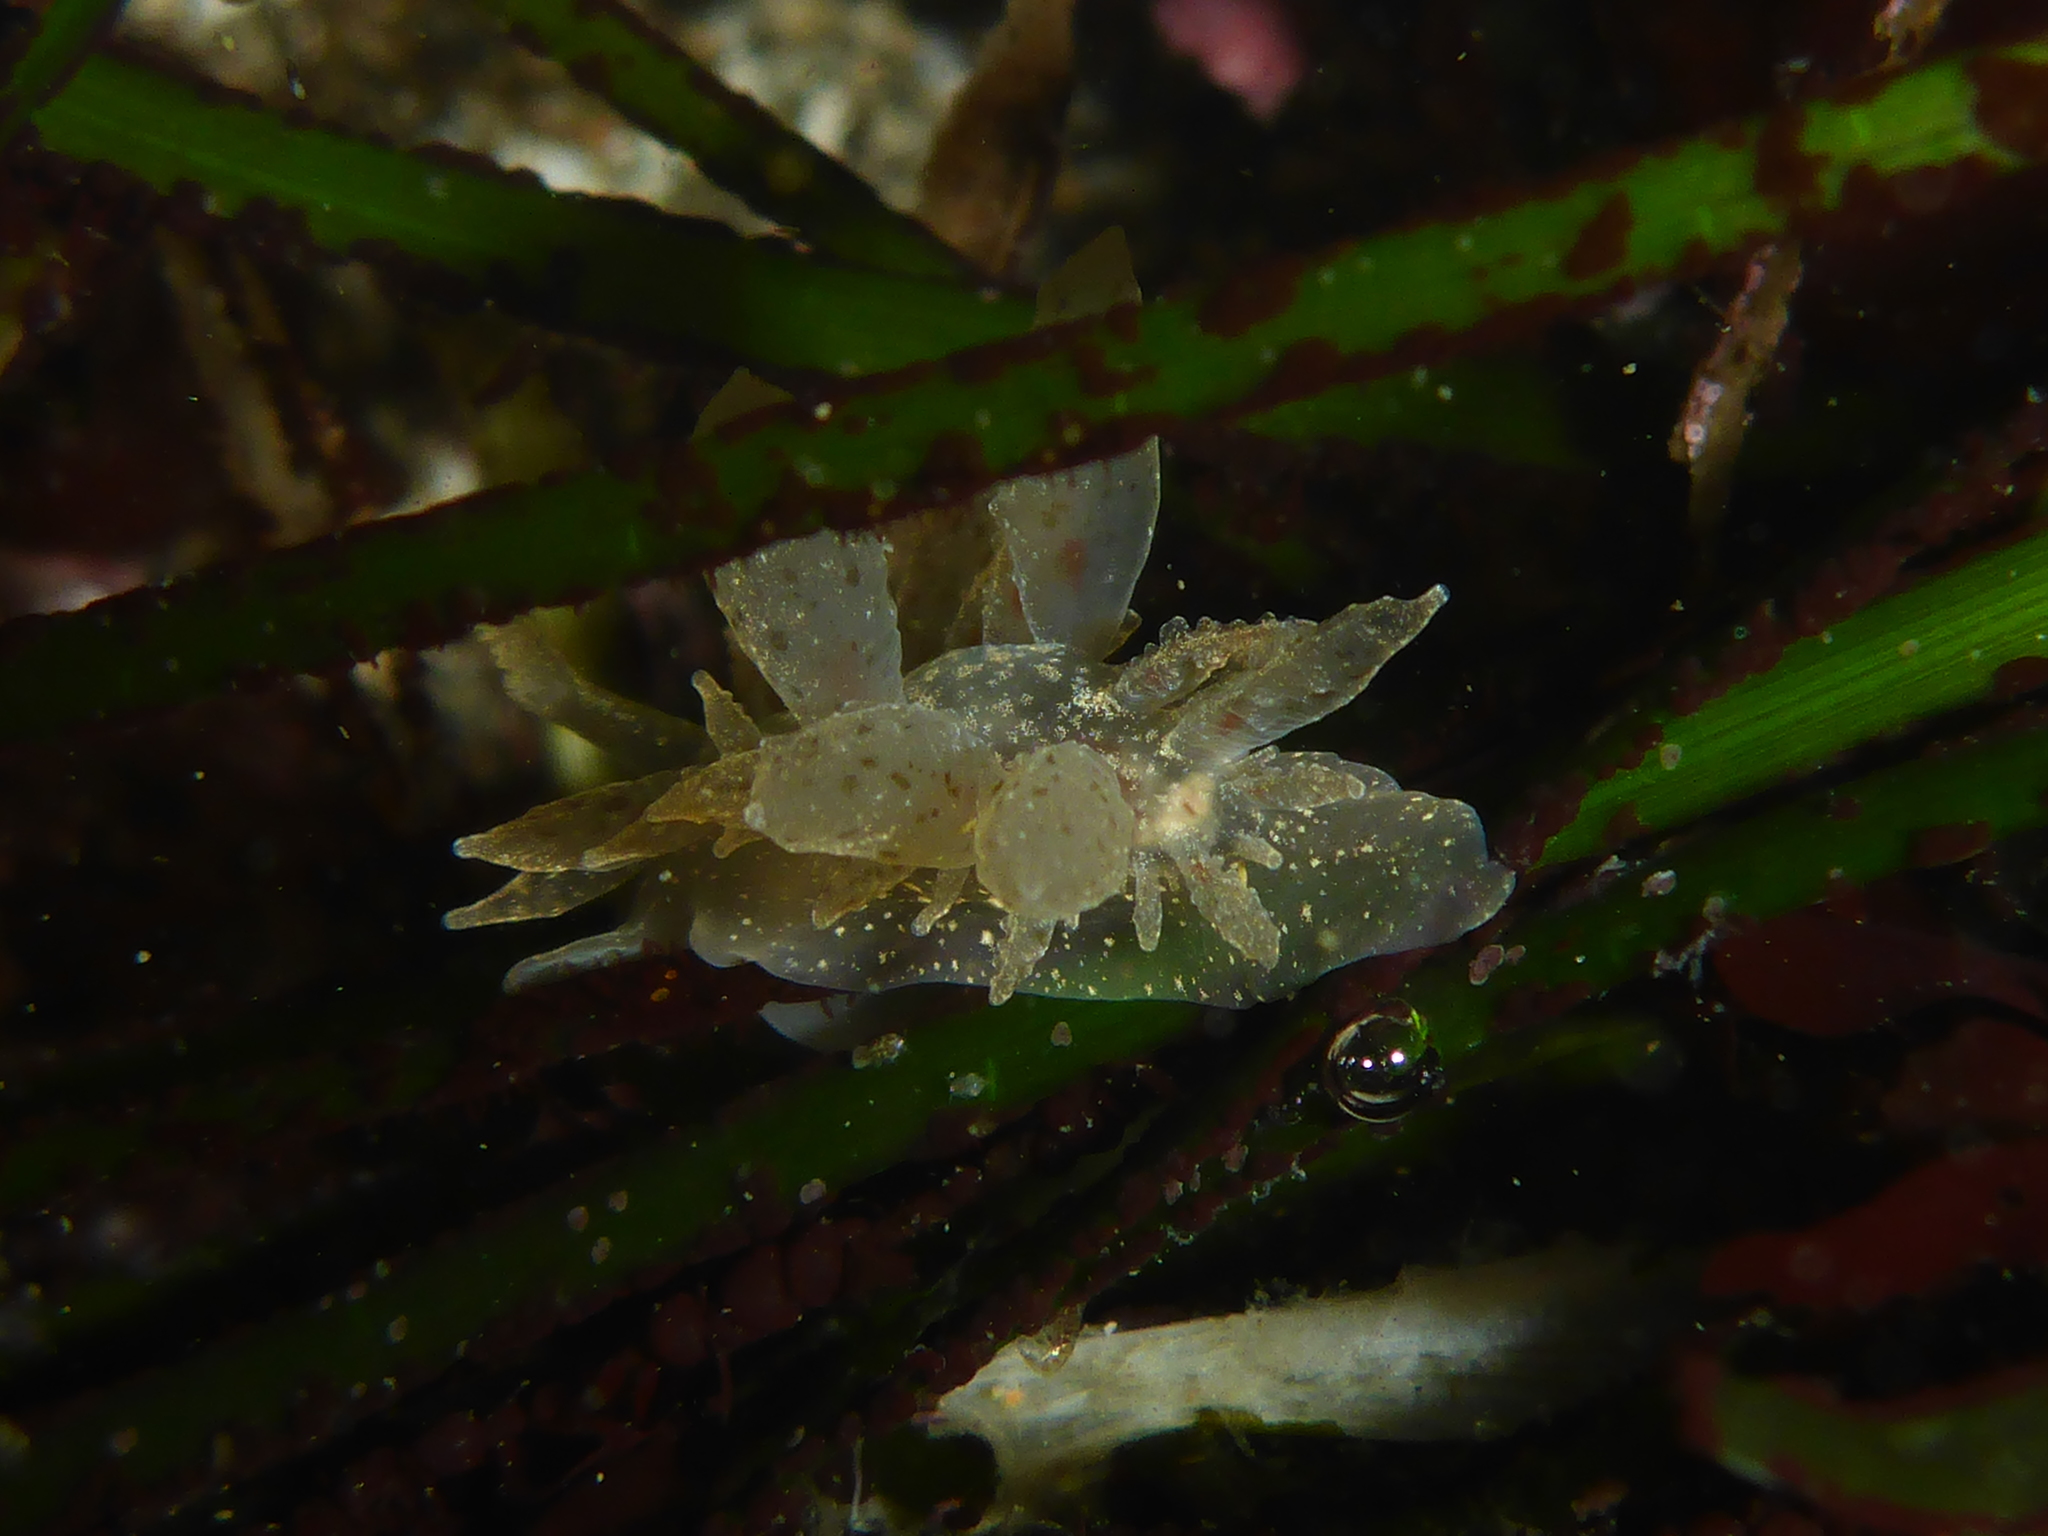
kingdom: Animalia
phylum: Mollusca
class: Gastropoda
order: Nudibranchia
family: Dironidae
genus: Dirona
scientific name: Dirona picta
